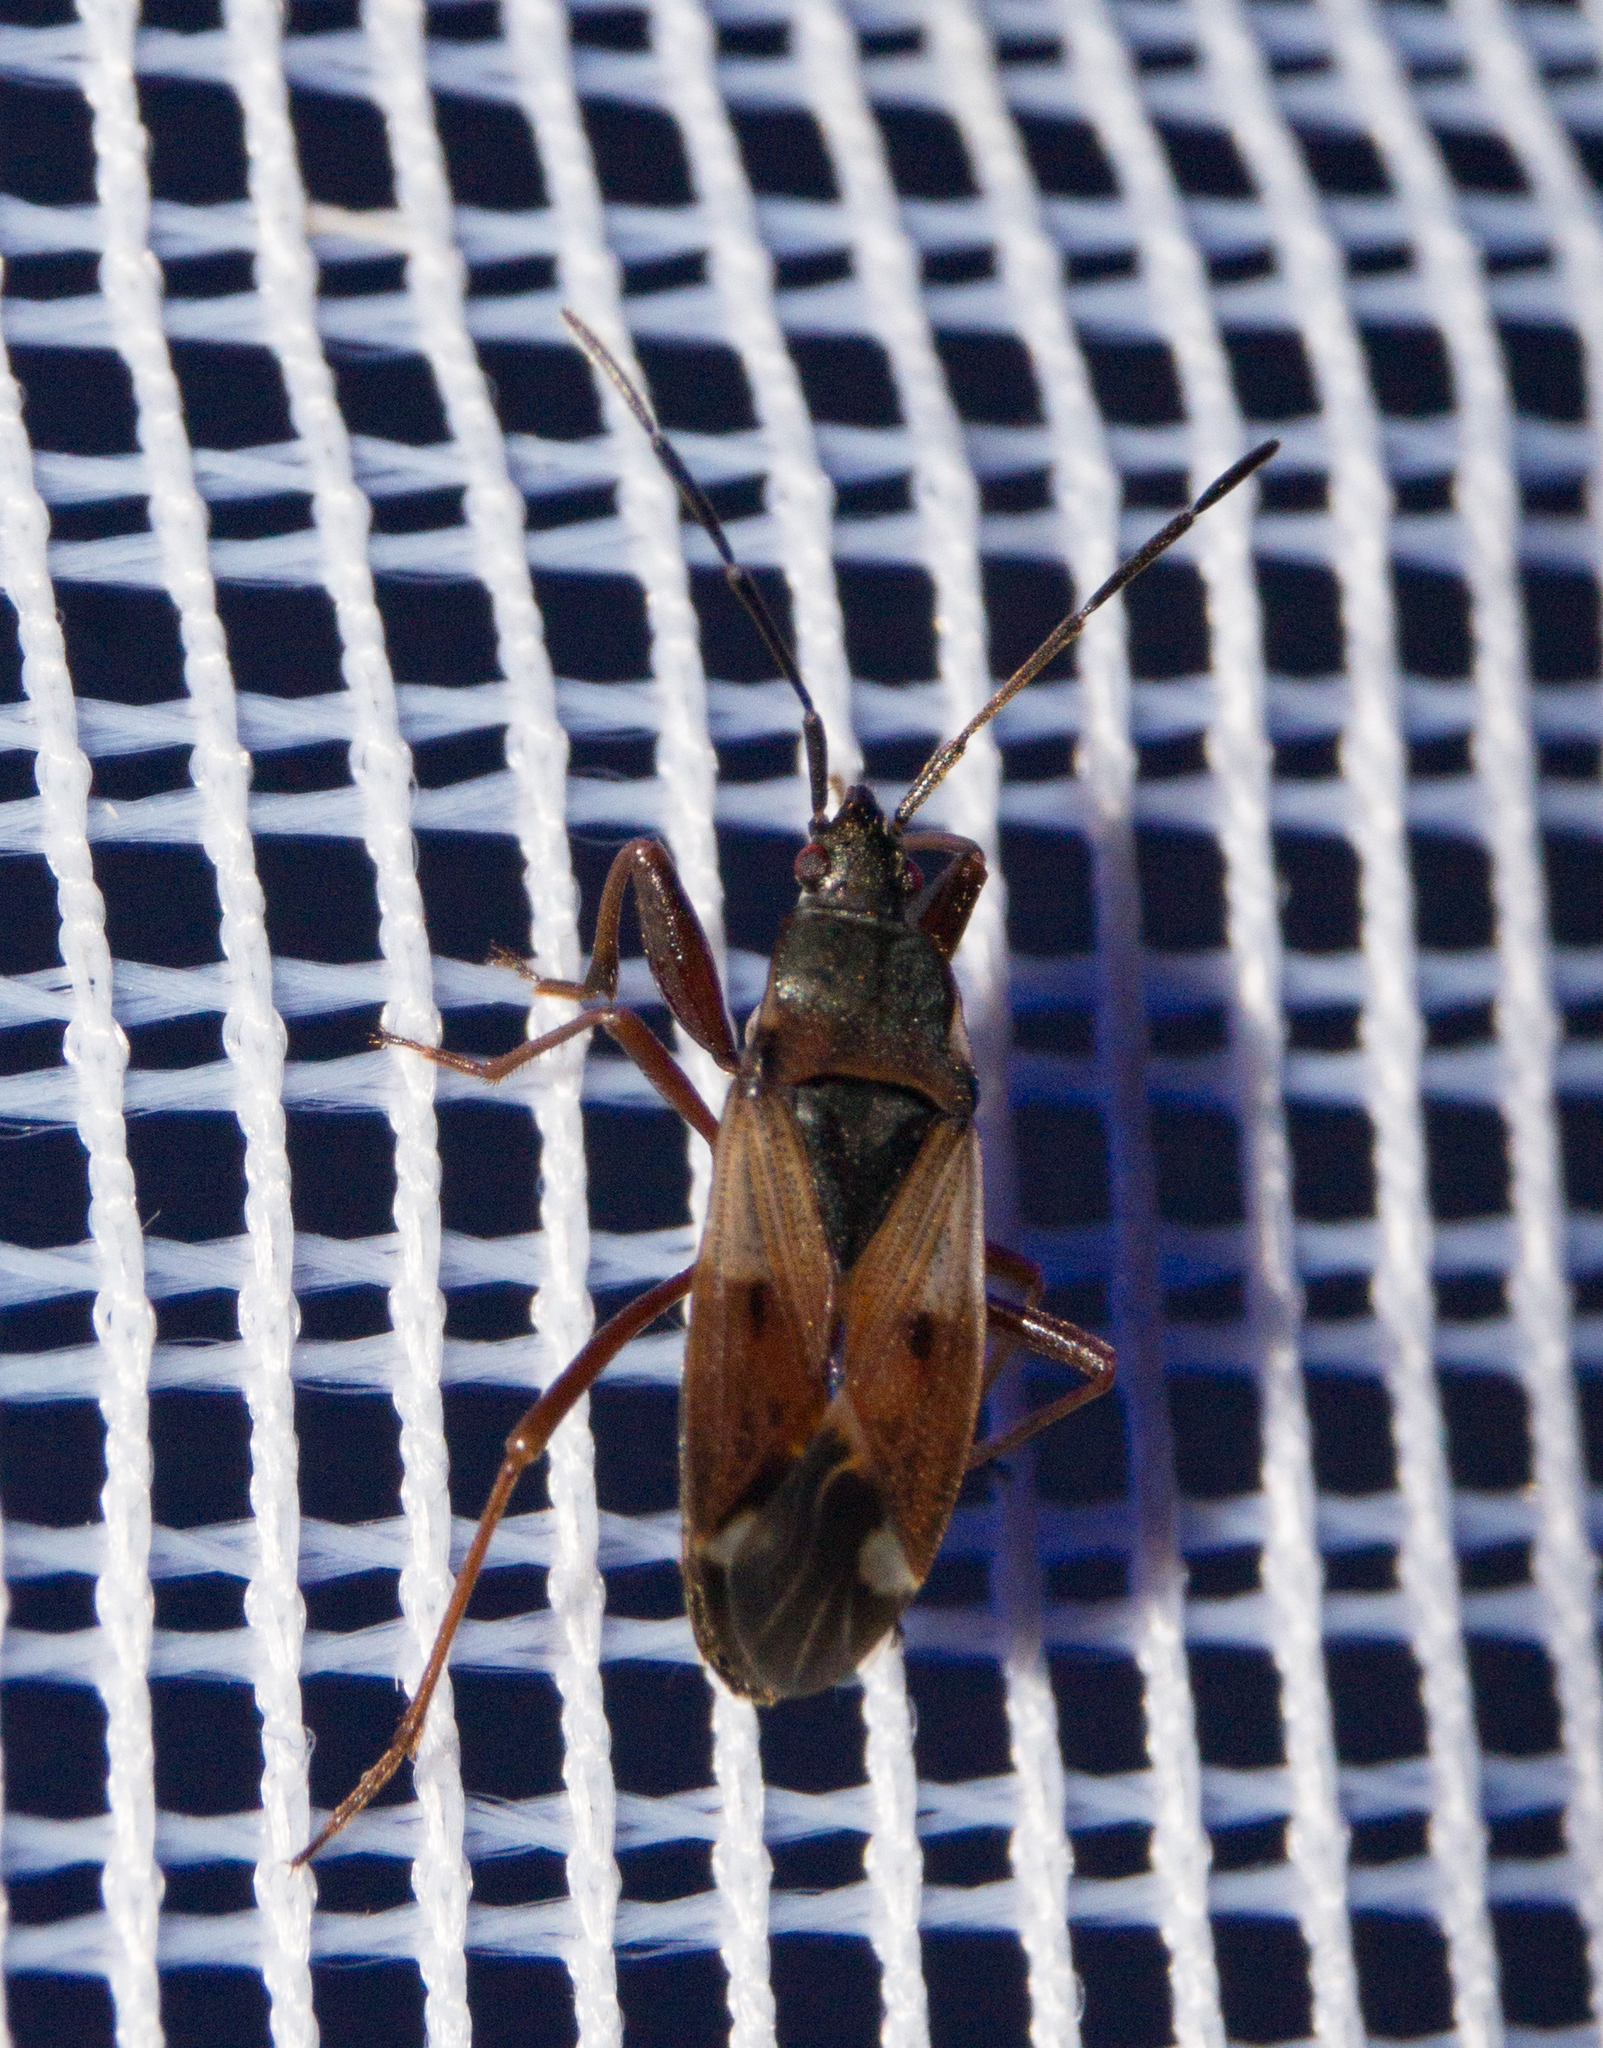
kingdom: Animalia
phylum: Arthropoda
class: Insecta
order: Hemiptera
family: Rhyparochromidae
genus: Eremocoris
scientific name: Eremocoris abietis
